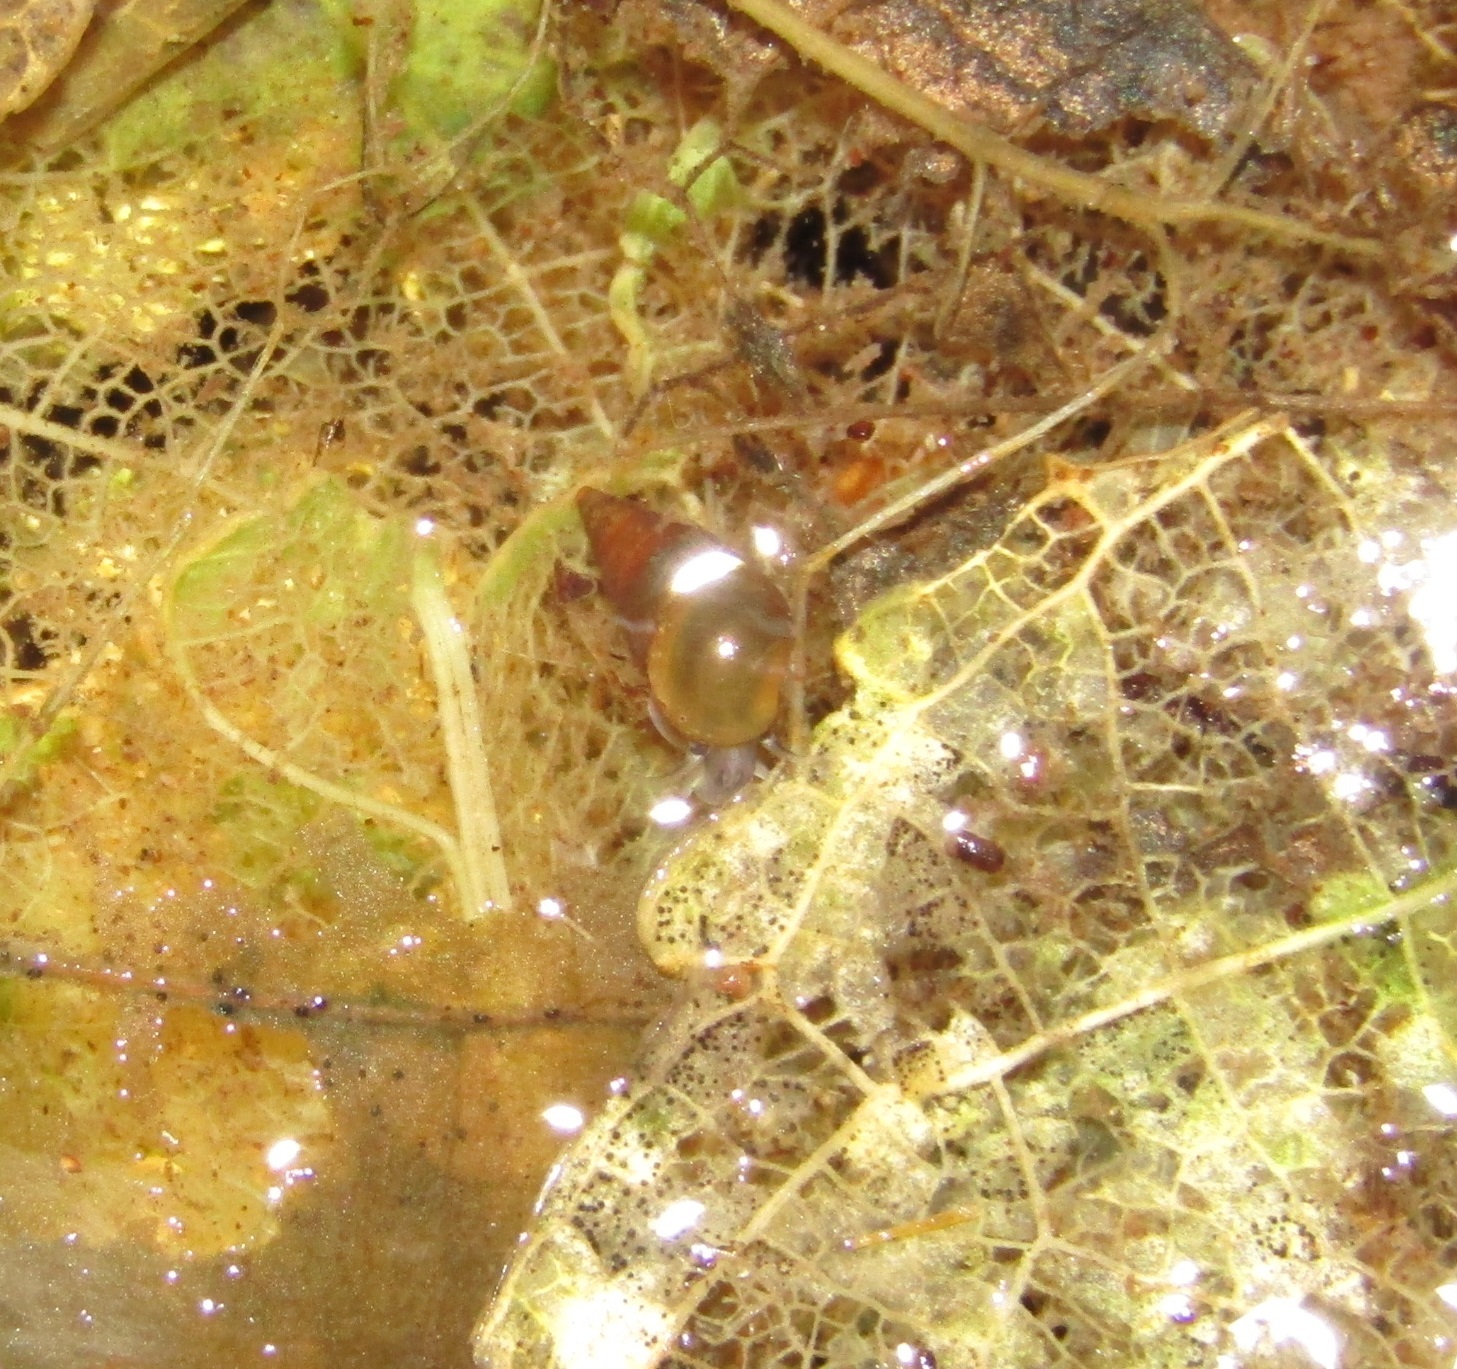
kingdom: Animalia
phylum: Mollusca
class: Gastropoda
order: Littorinimorpha
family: Tateidae
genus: Potamopyrgus
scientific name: Potamopyrgus antipodarum
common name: Jenkins' spire snail
